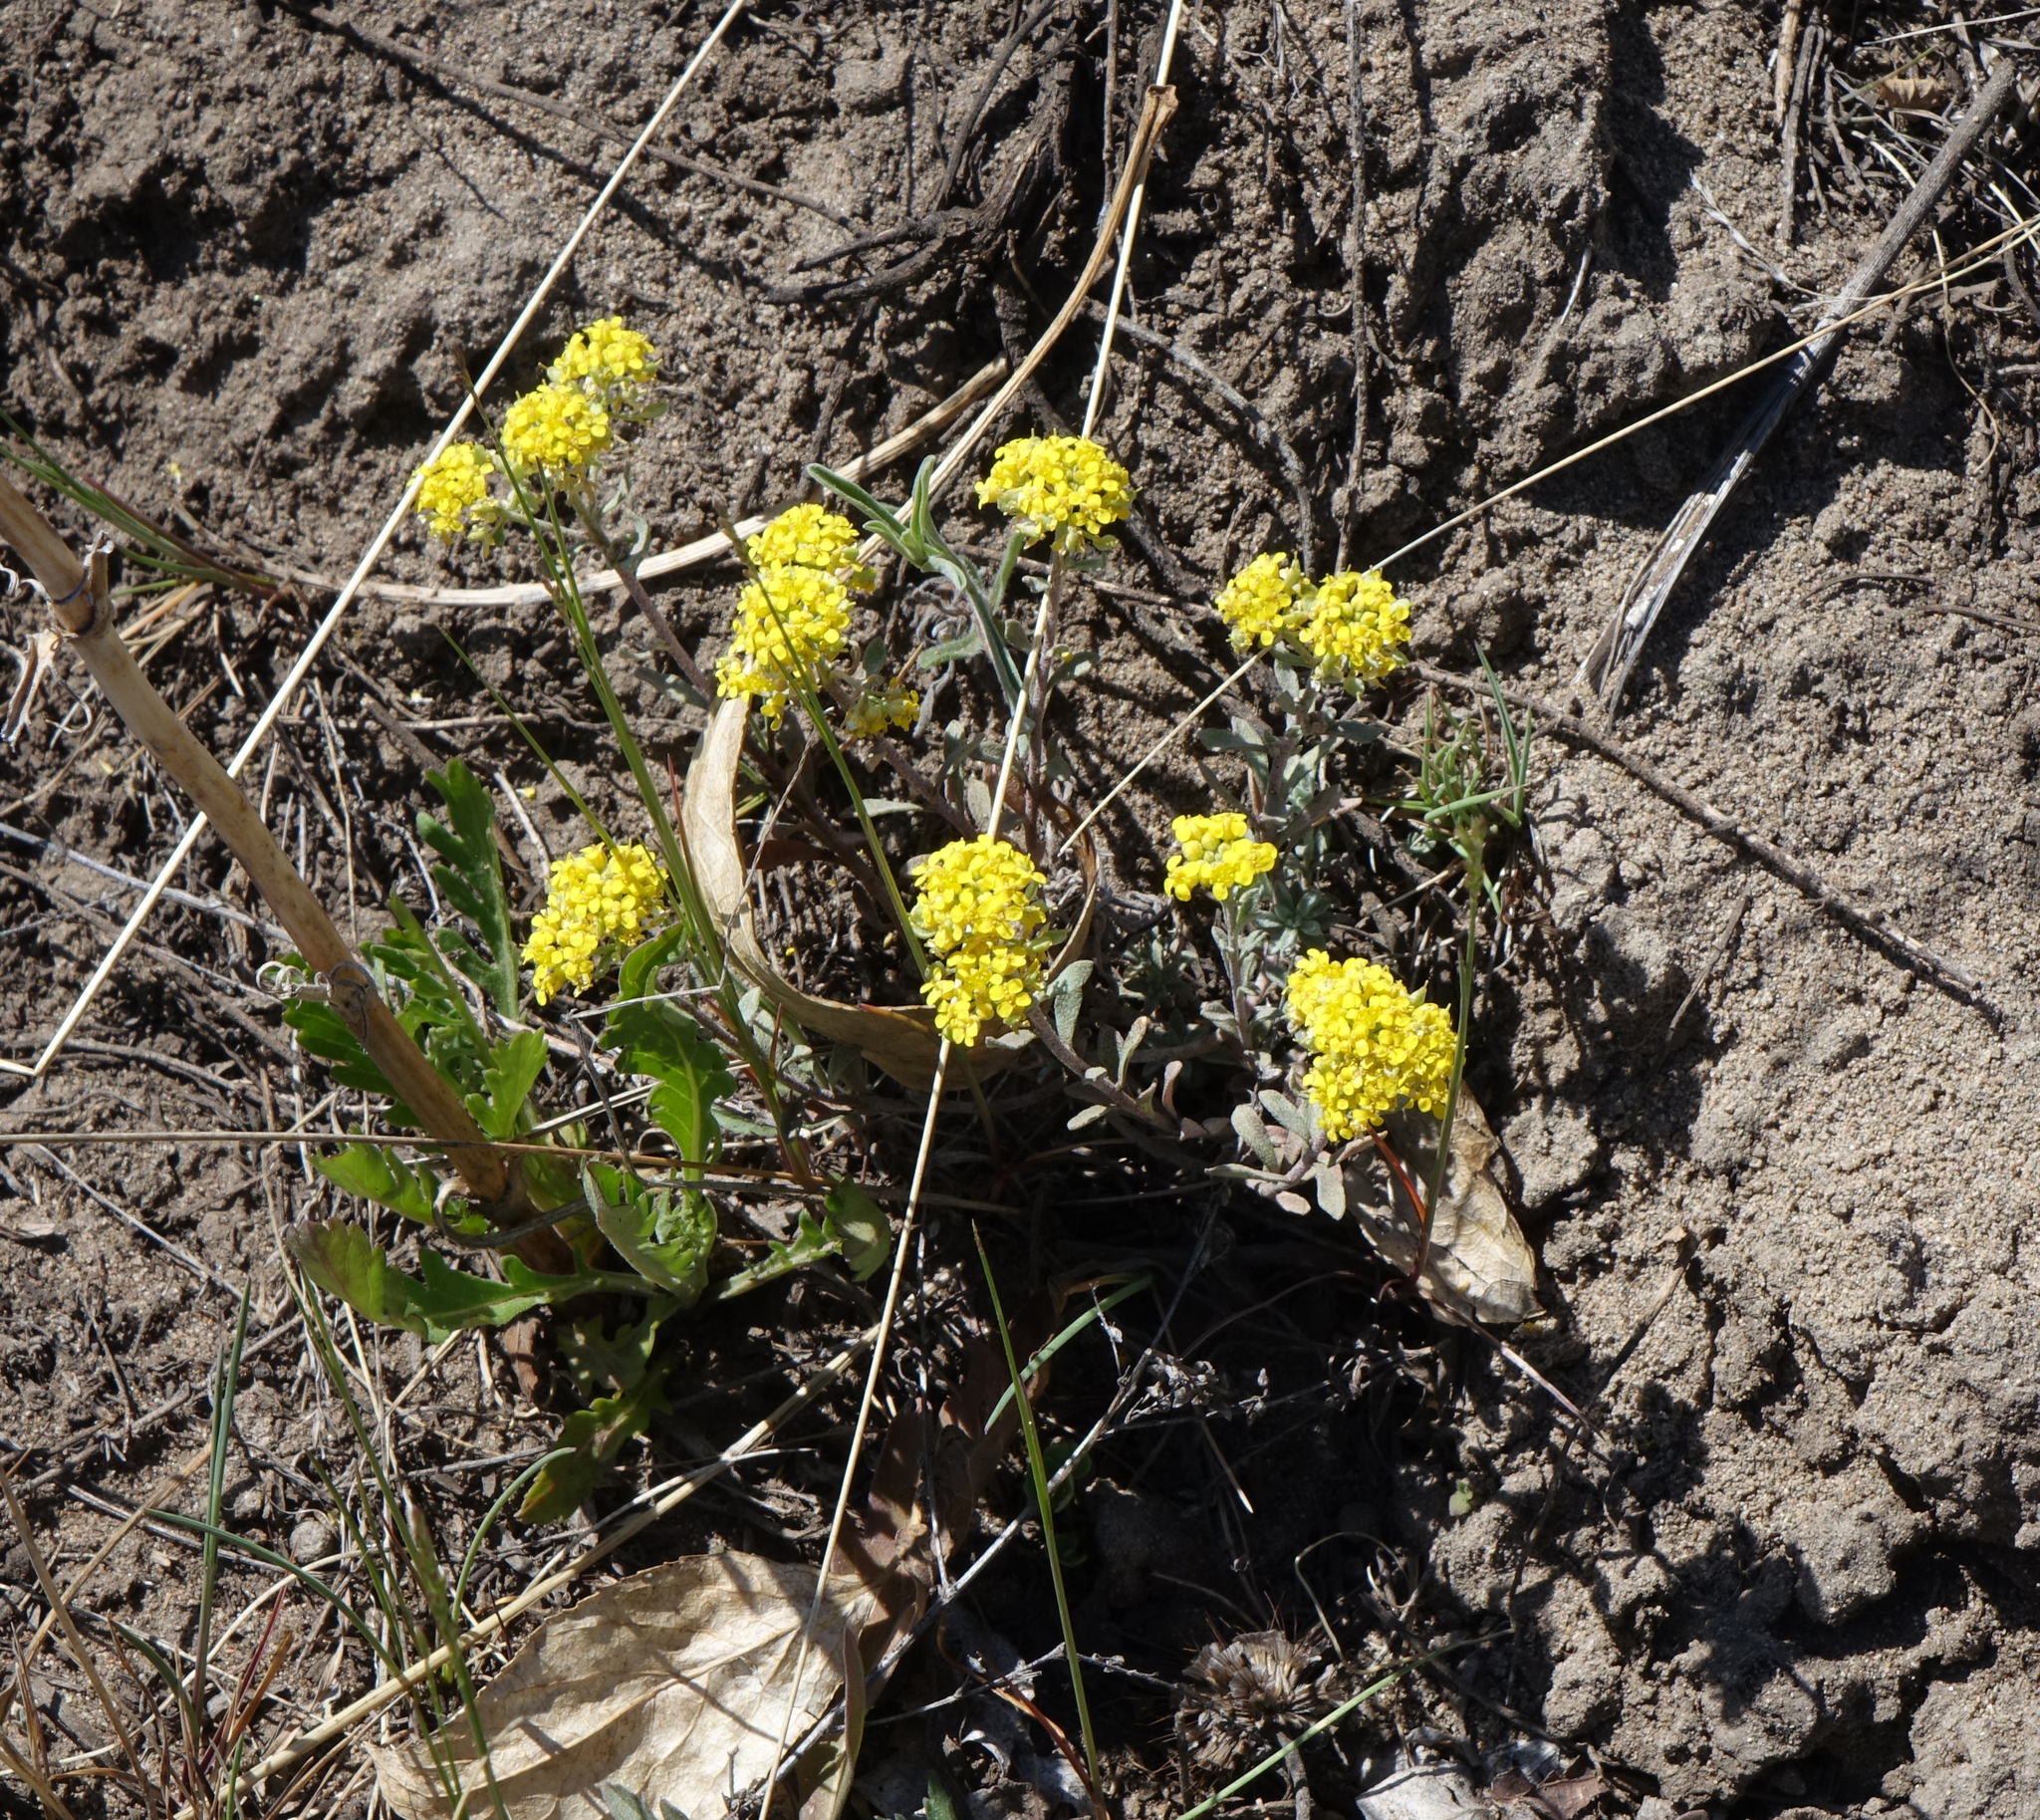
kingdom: Plantae
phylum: Tracheophyta
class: Magnoliopsida
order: Brassicales
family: Brassicaceae
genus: Odontarrhena
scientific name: Odontarrhena obovata
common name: American alyssum
